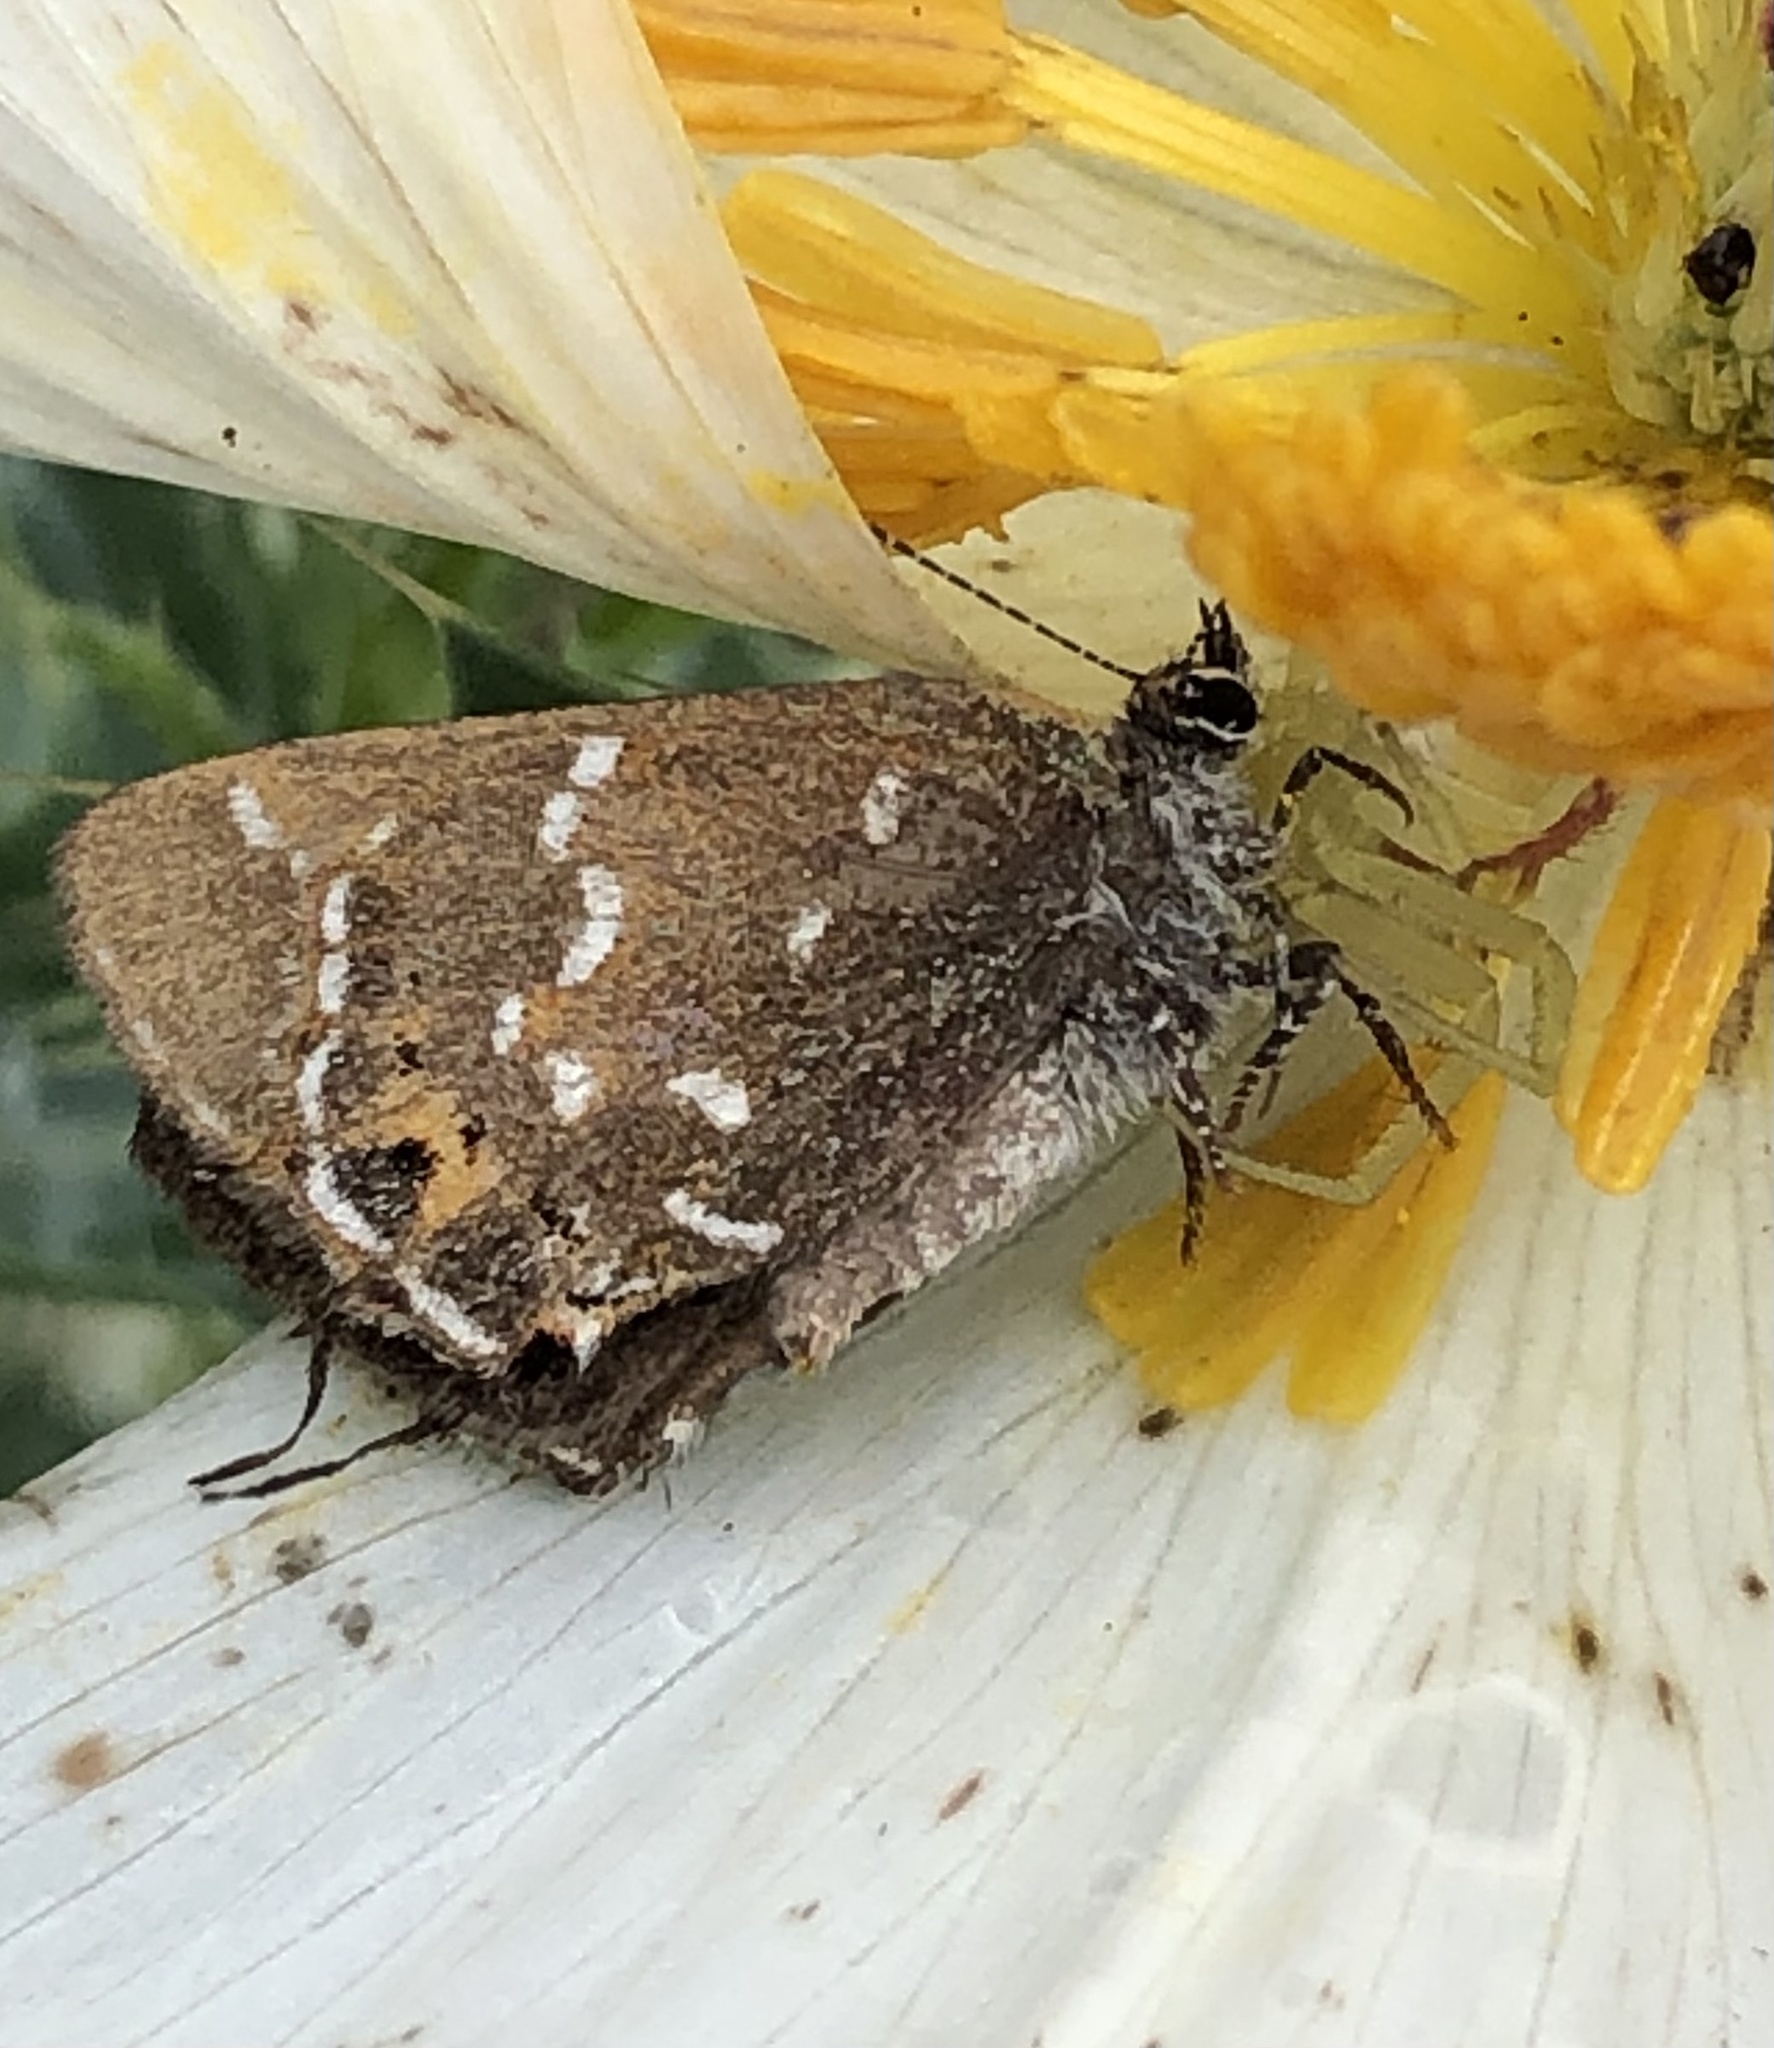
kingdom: Animalia
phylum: Arthropoda
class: Insecta
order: Lepidoptera
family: Lycaenidae
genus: Mitoura
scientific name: Mitoura gryneus
